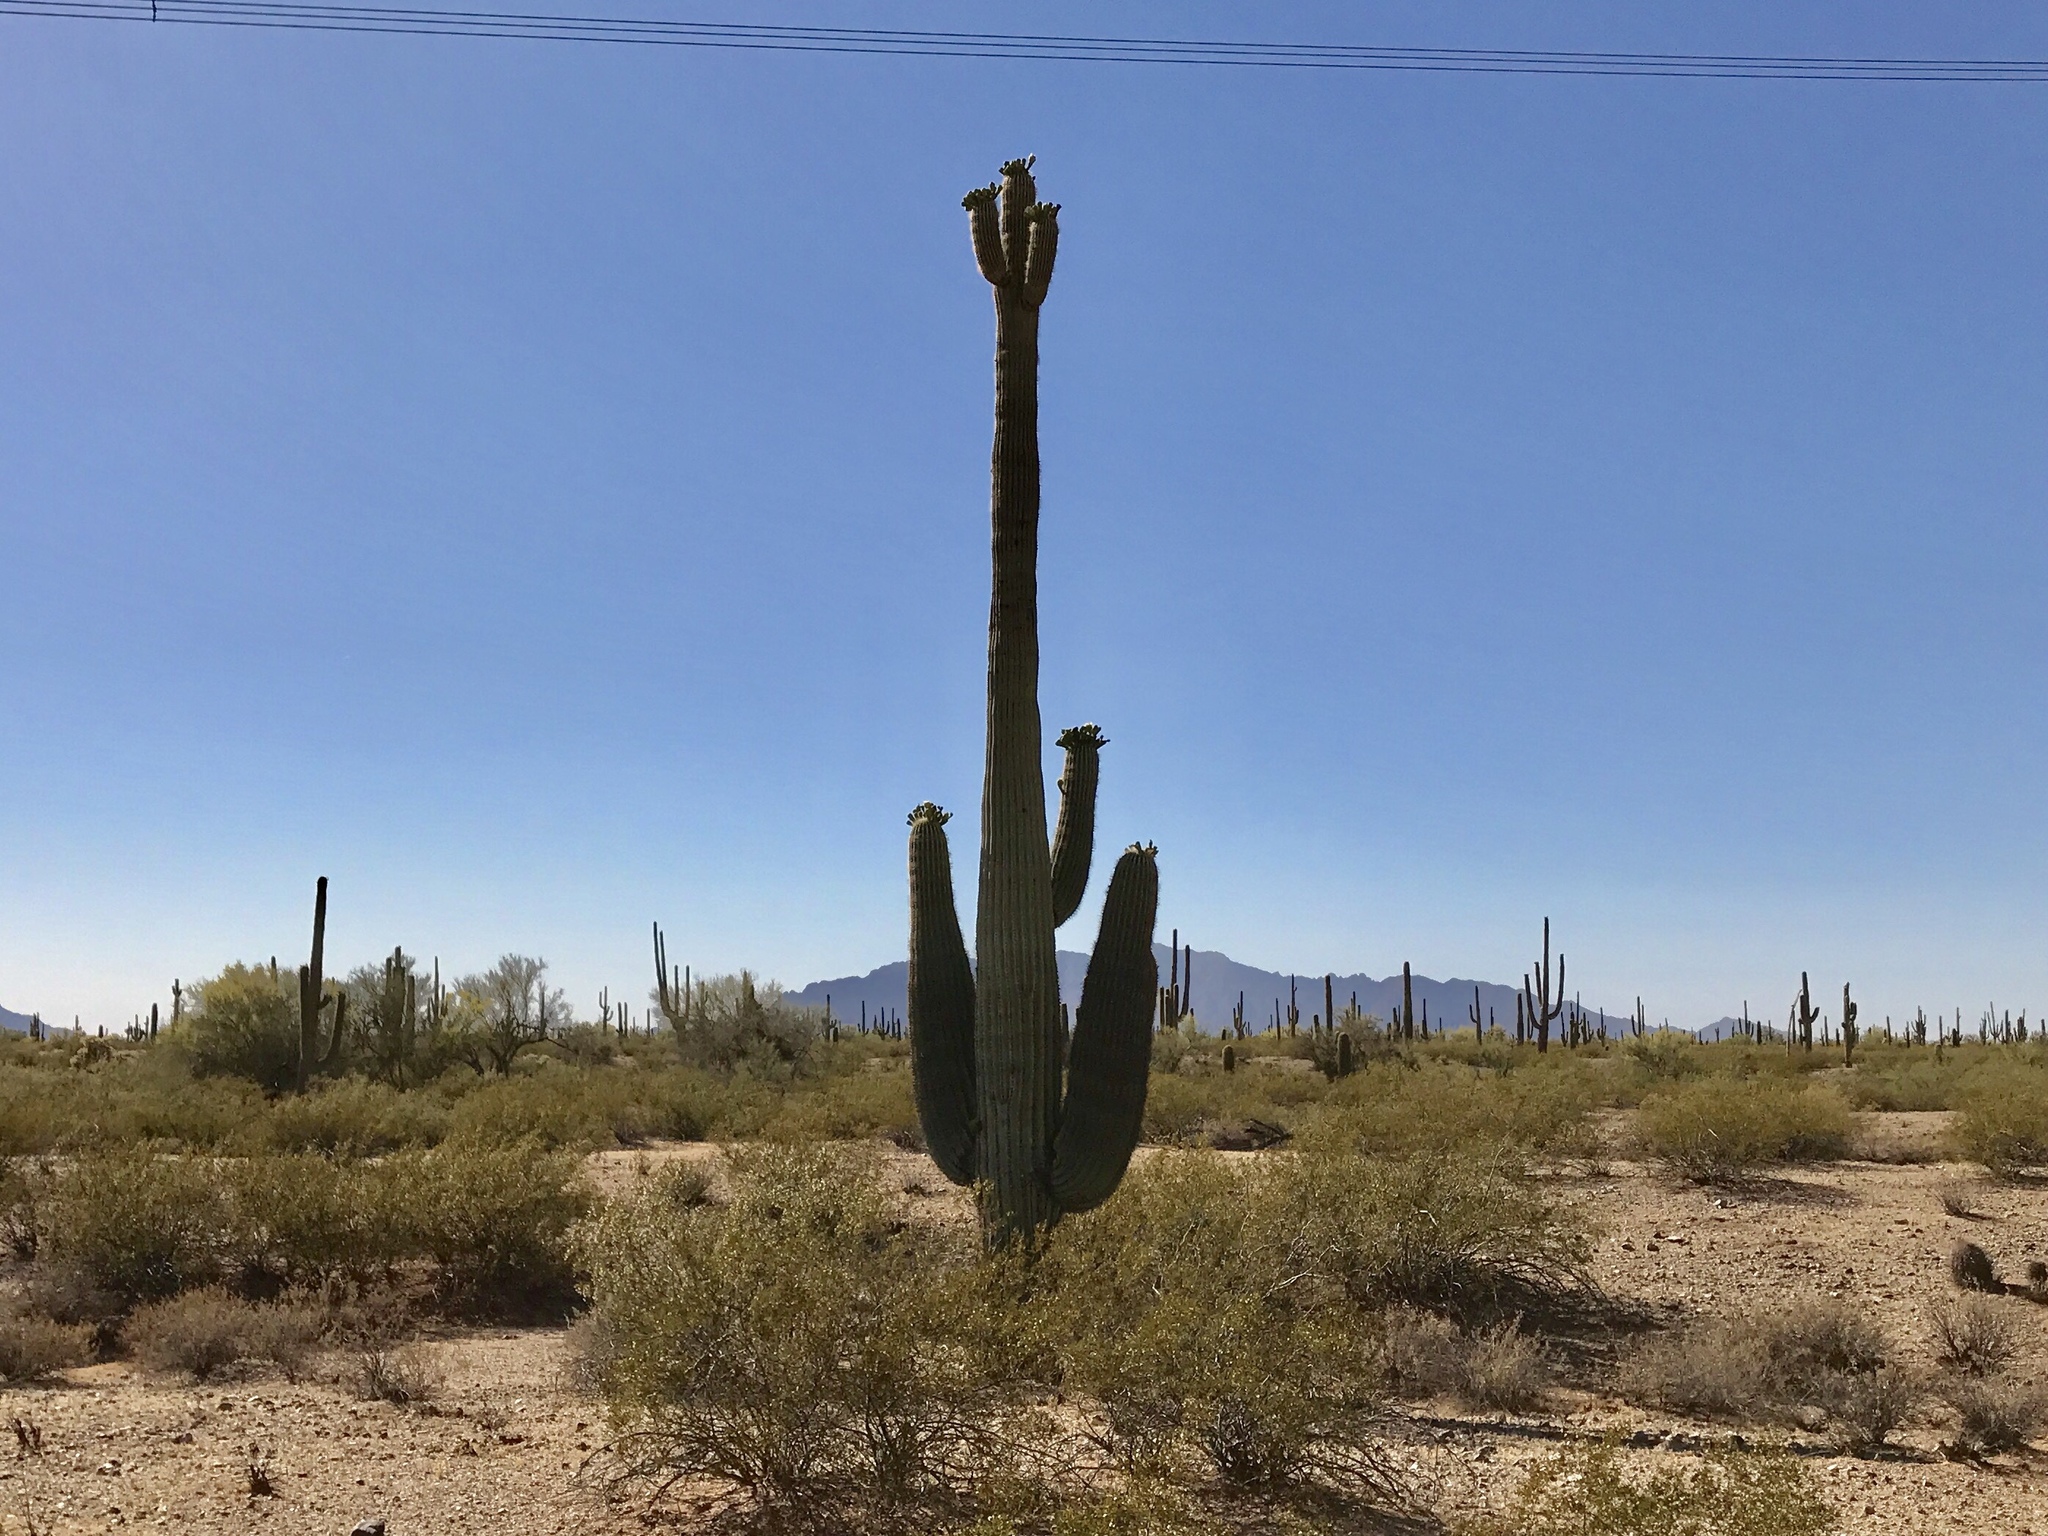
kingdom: Plantae
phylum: Tracheophyta
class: Magnoliopsida
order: Caryophyllales
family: Cactaceae
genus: Carnegiea
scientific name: Carnegiea gigantea
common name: Saguaro
